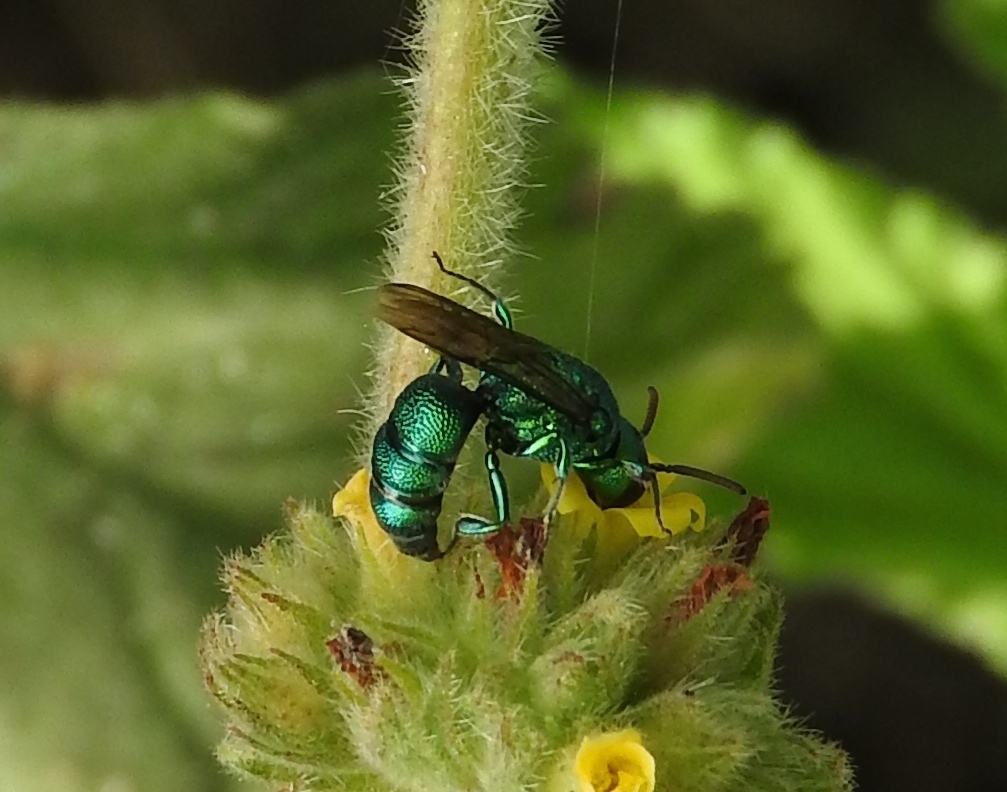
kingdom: Animalia
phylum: Arthropoda
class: Insecta
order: Hymenoptera
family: Halictidae
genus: Temnosoma
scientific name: Temnosoma
